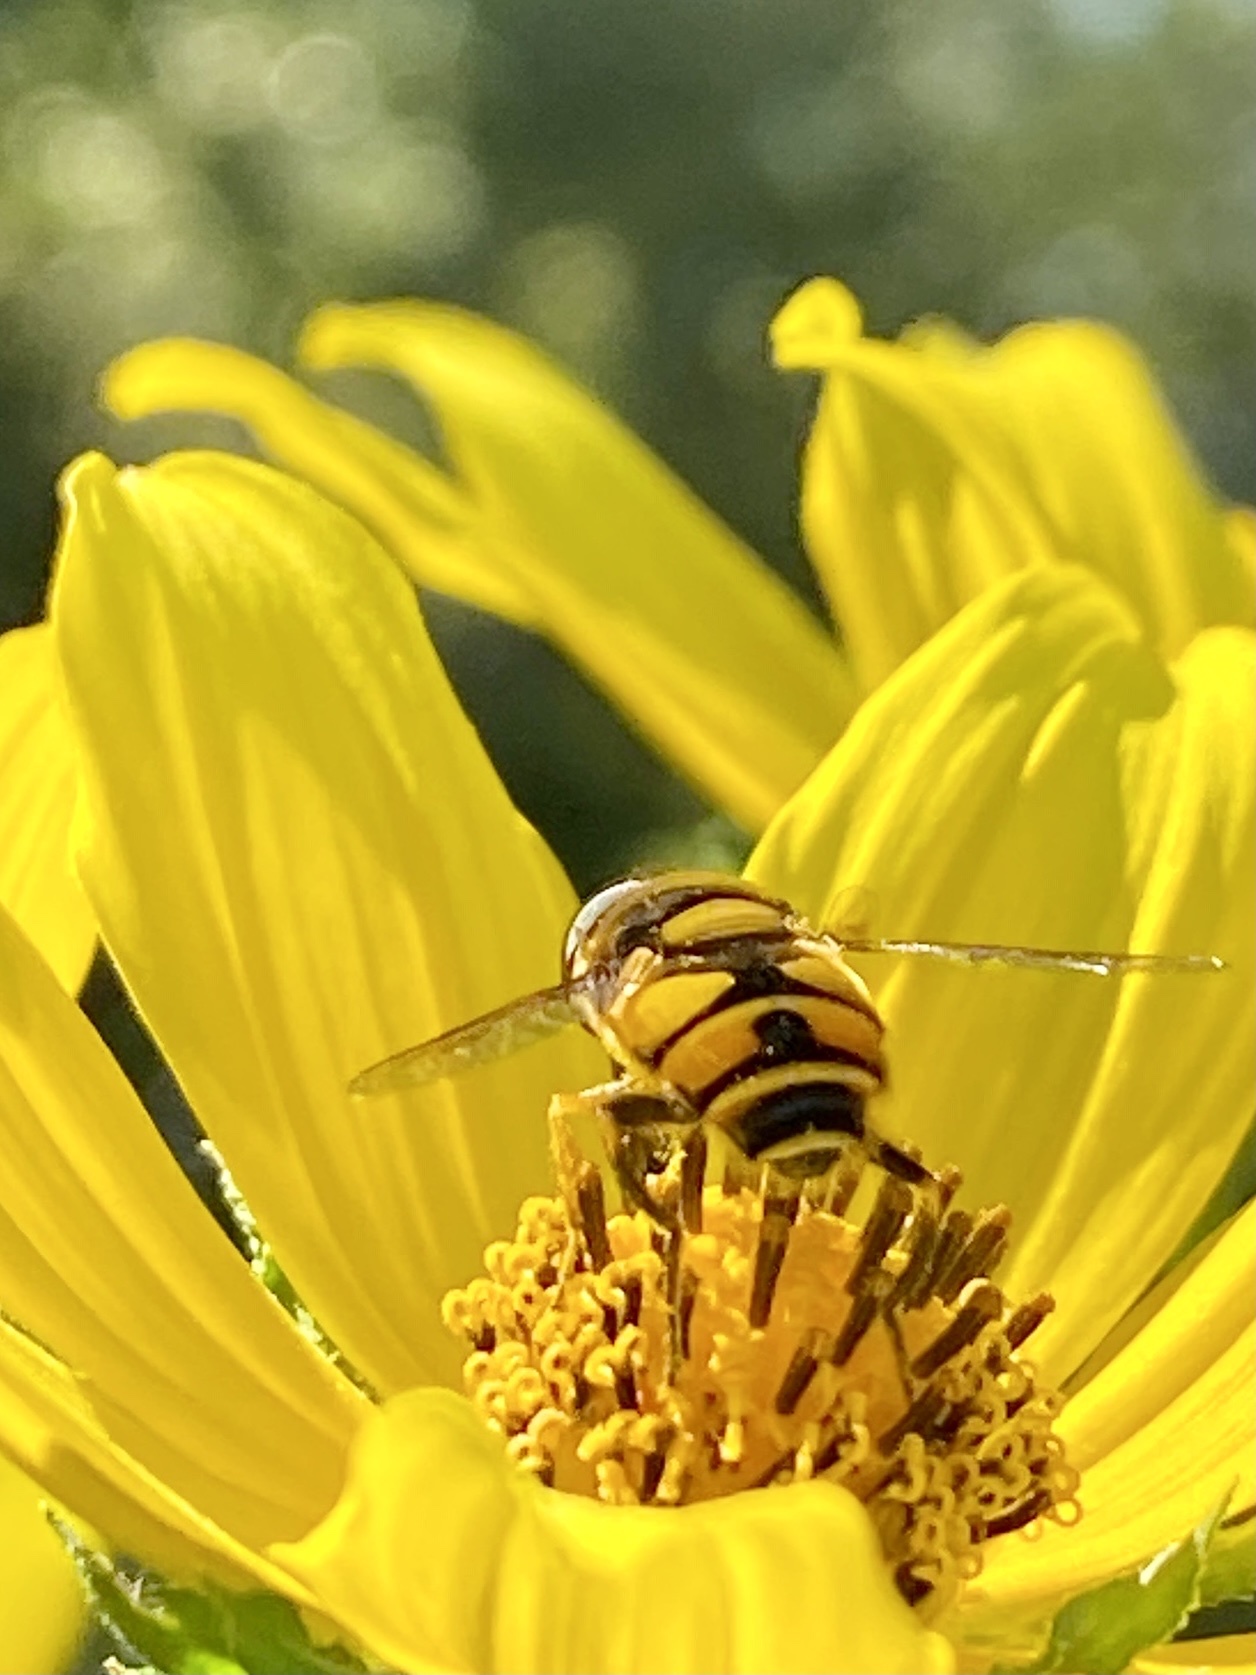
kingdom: Animalia
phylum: Arthropoda
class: Insecta
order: Diptera
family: Syrphidae
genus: Eristalis
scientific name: Eristalis transversa
